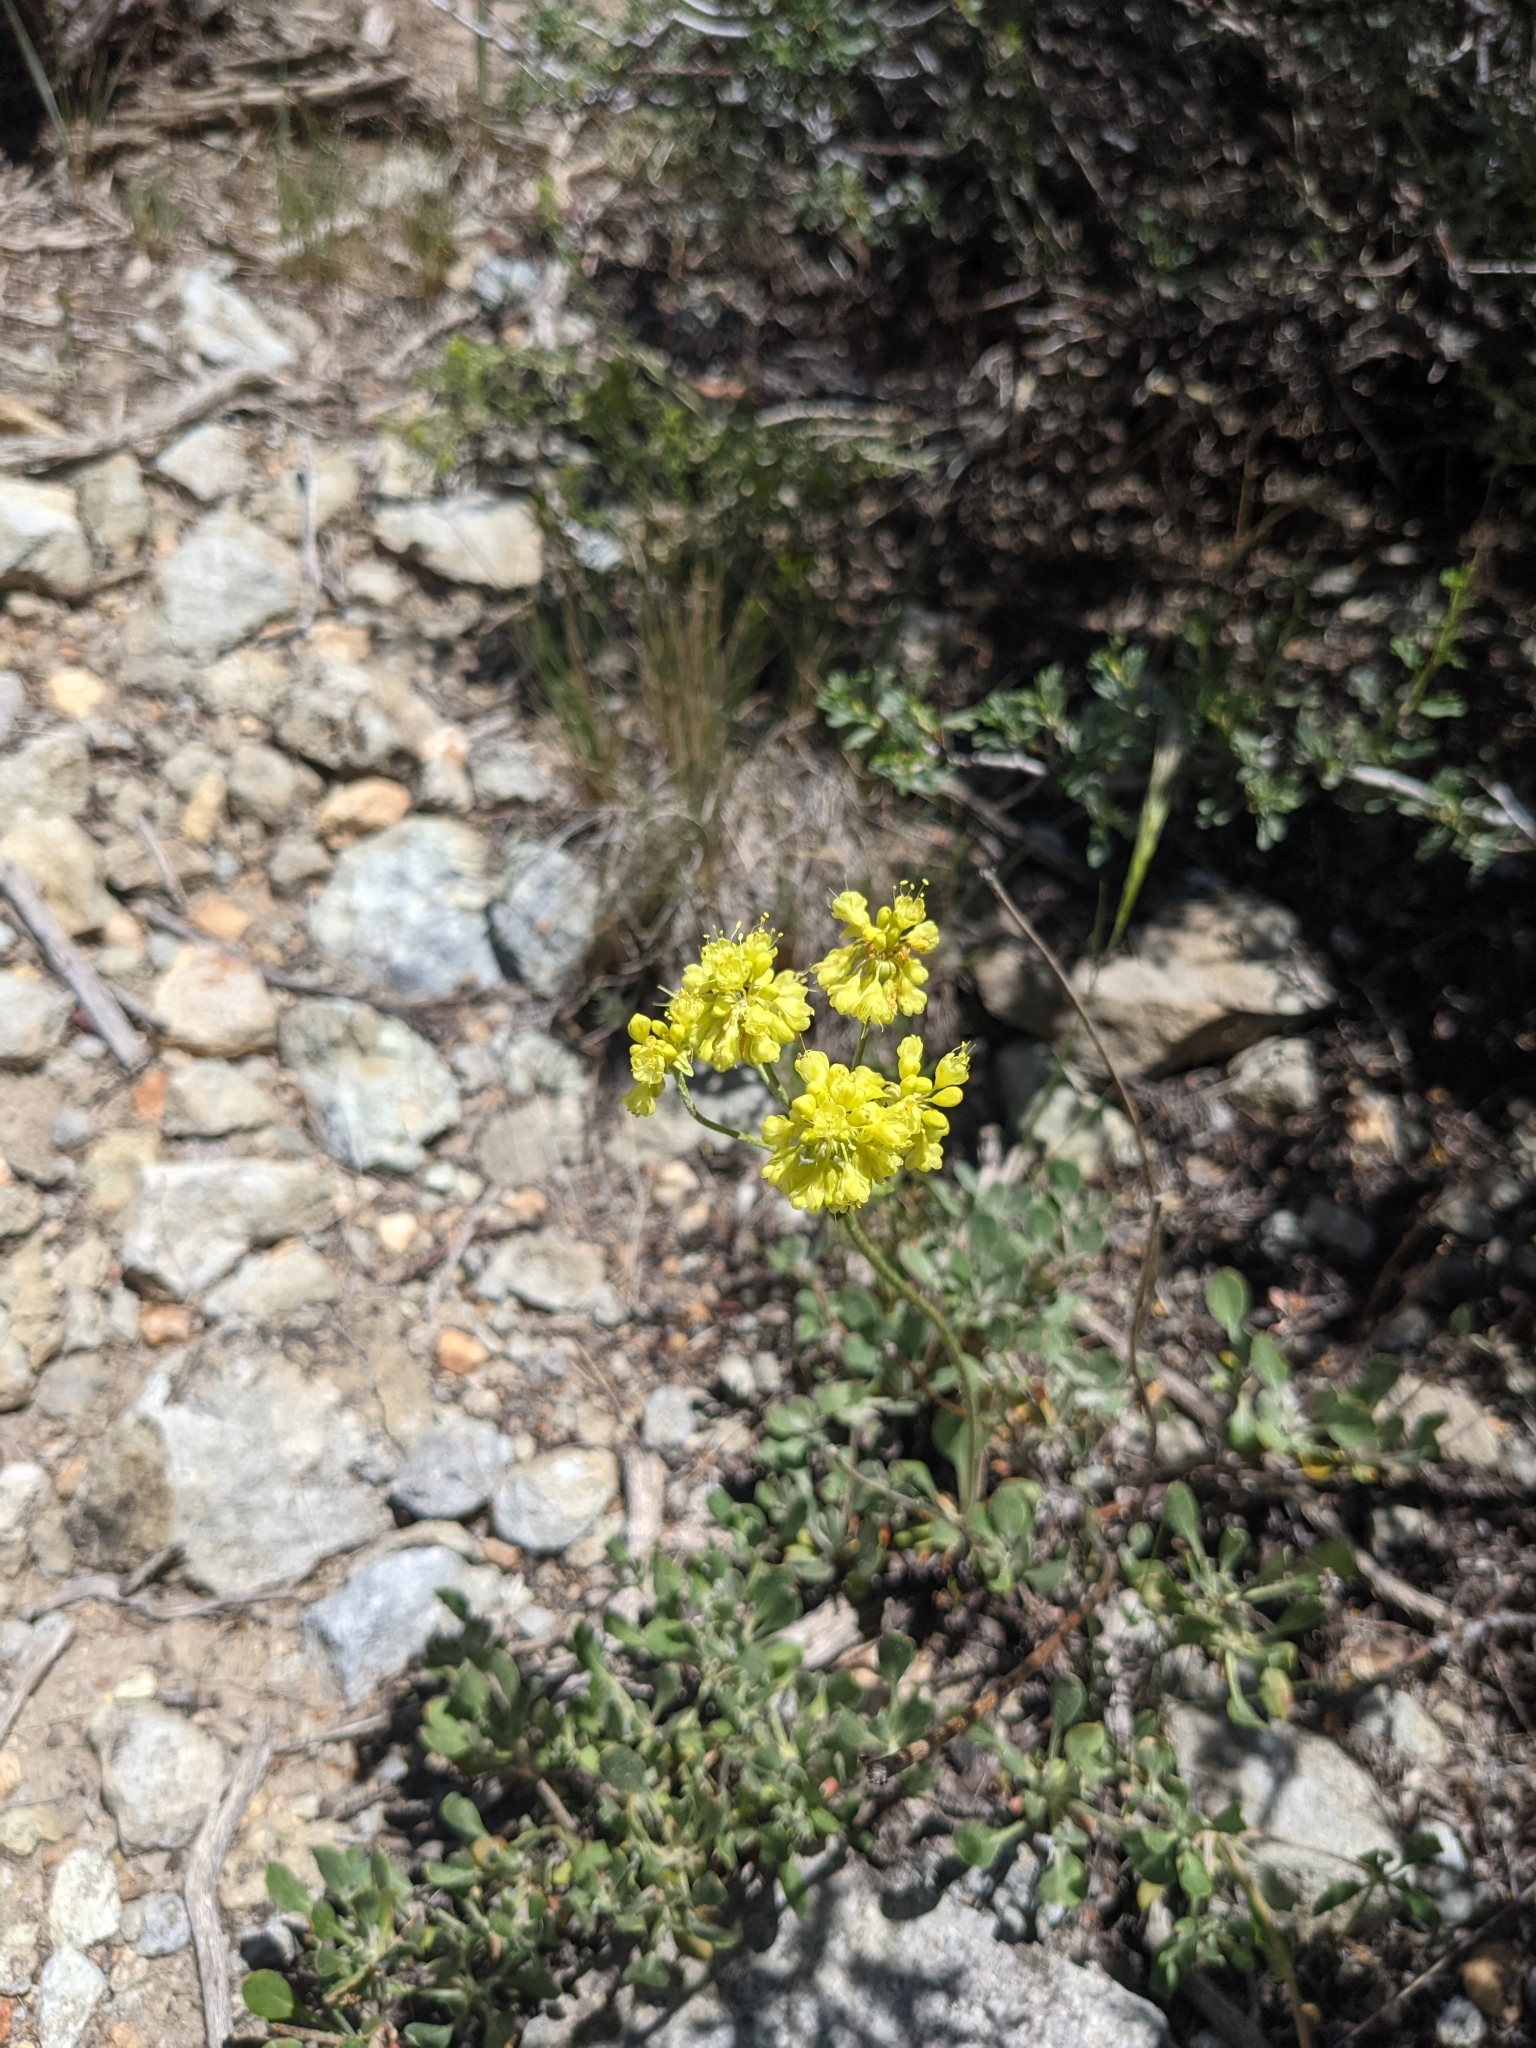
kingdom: Plantae
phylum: Tracheophyta
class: Magnoliopsida
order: Caryophyllales
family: Polygonaceae
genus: Eriogonum
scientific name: Eriogonum umbellatum
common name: Sulfur-buckwheat
